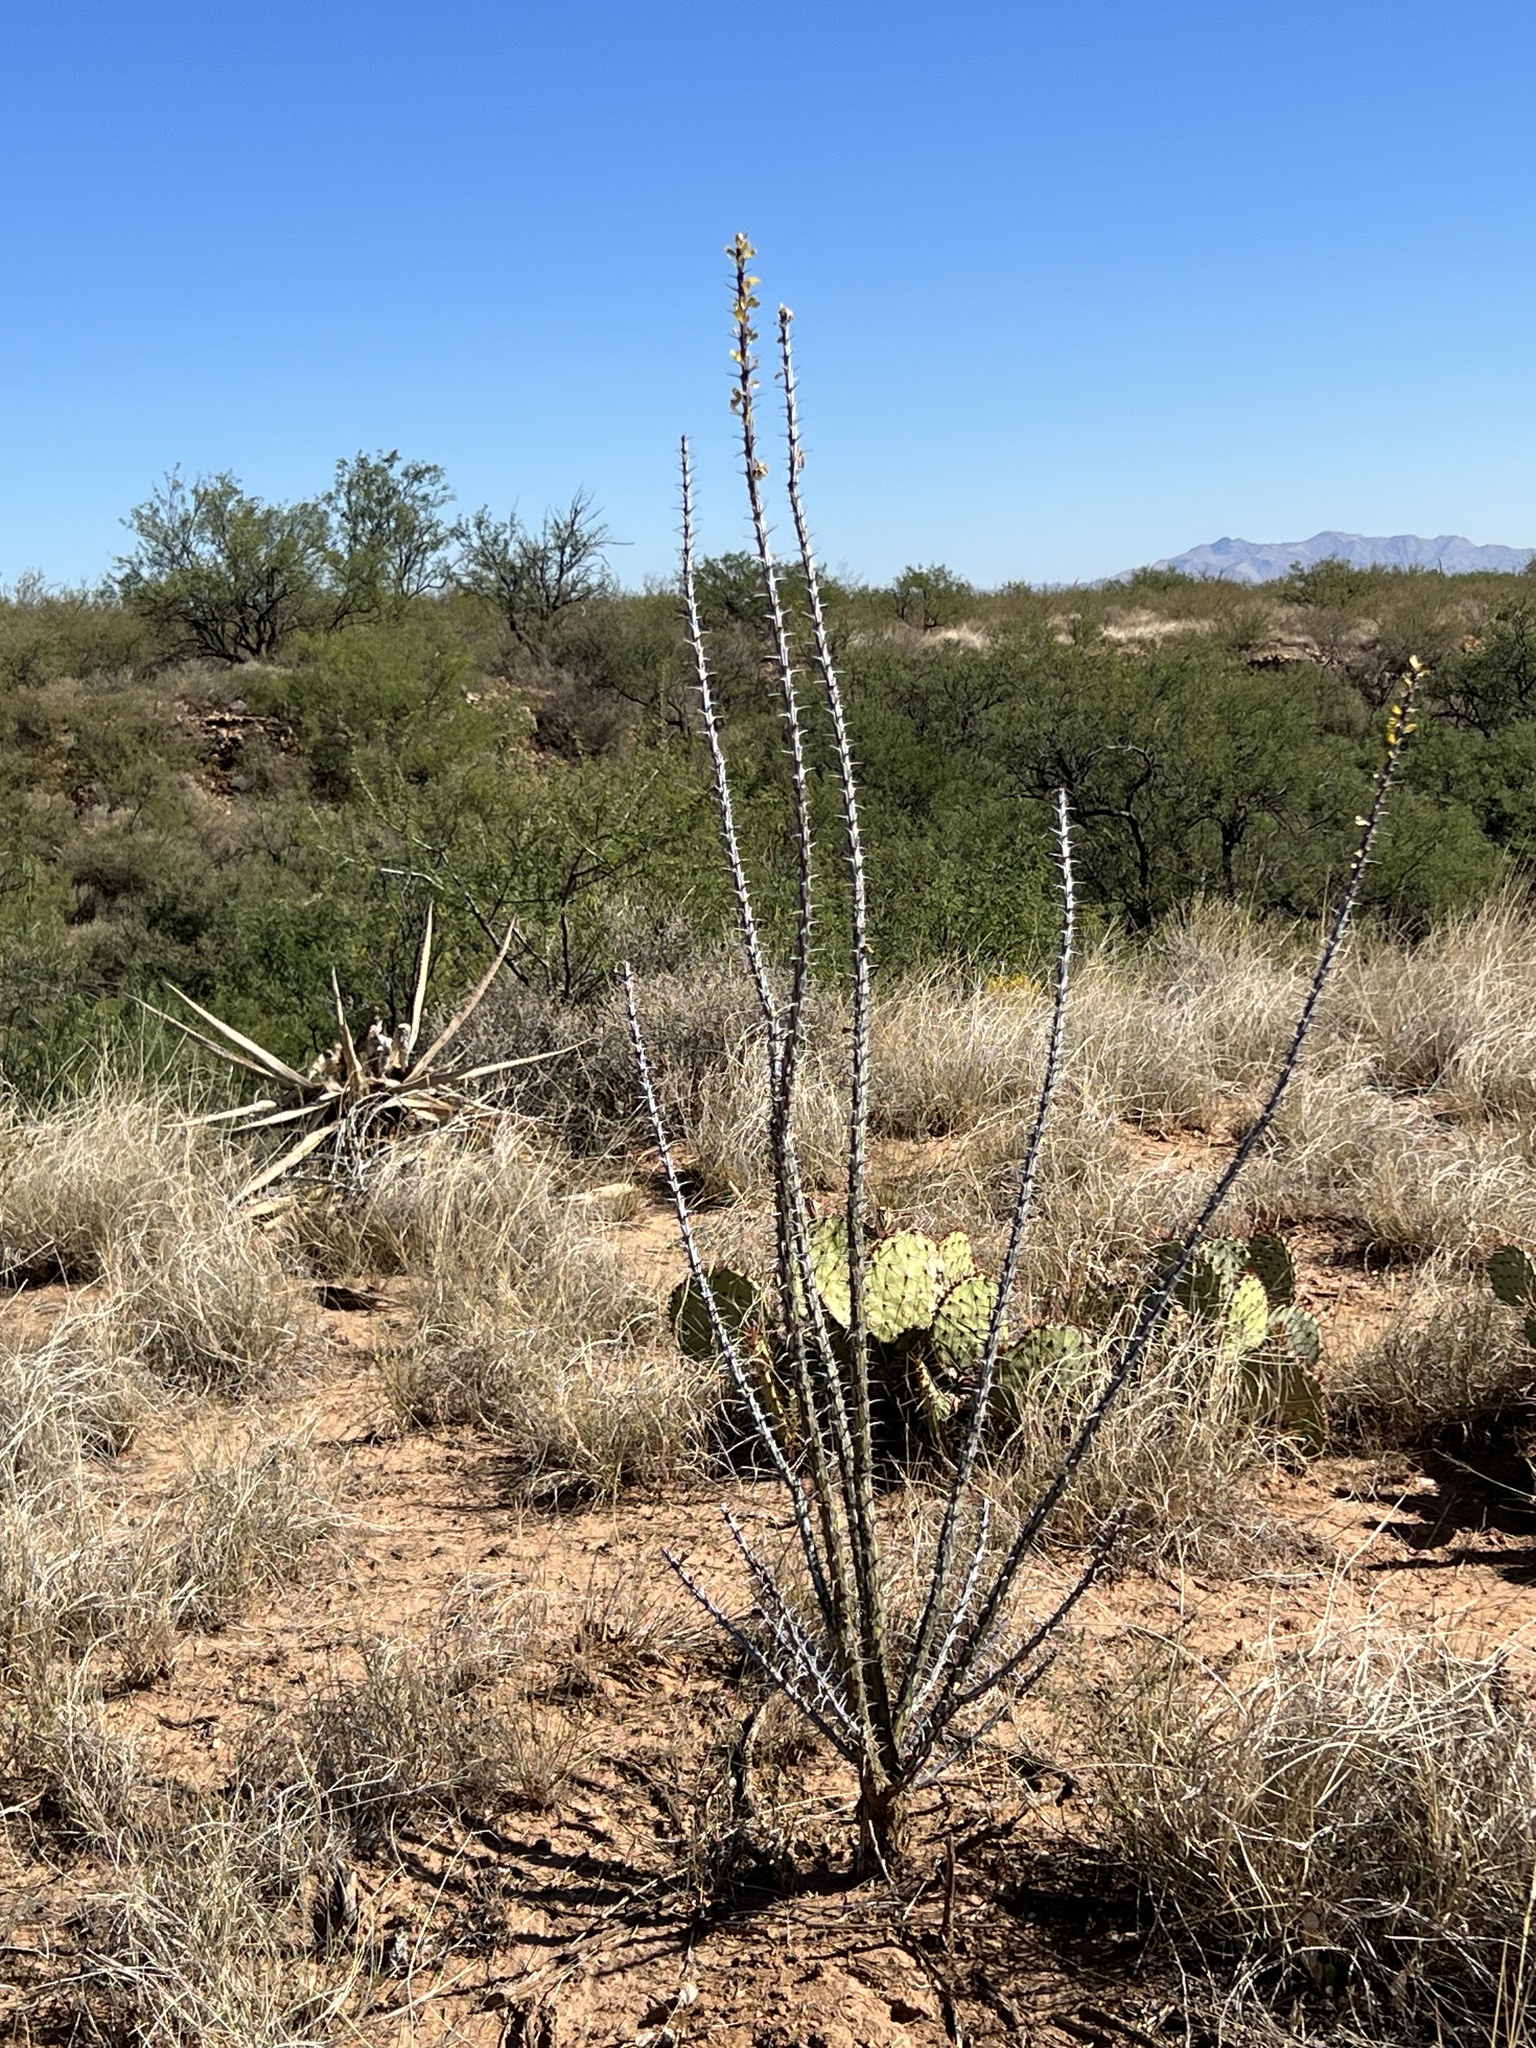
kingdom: Plantae
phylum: Tracheophyta
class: Magnoliopsida
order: Ericales
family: Fouquieriaceae
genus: Fouquieria
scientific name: Fouquieria splendens
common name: Vine-cactus
